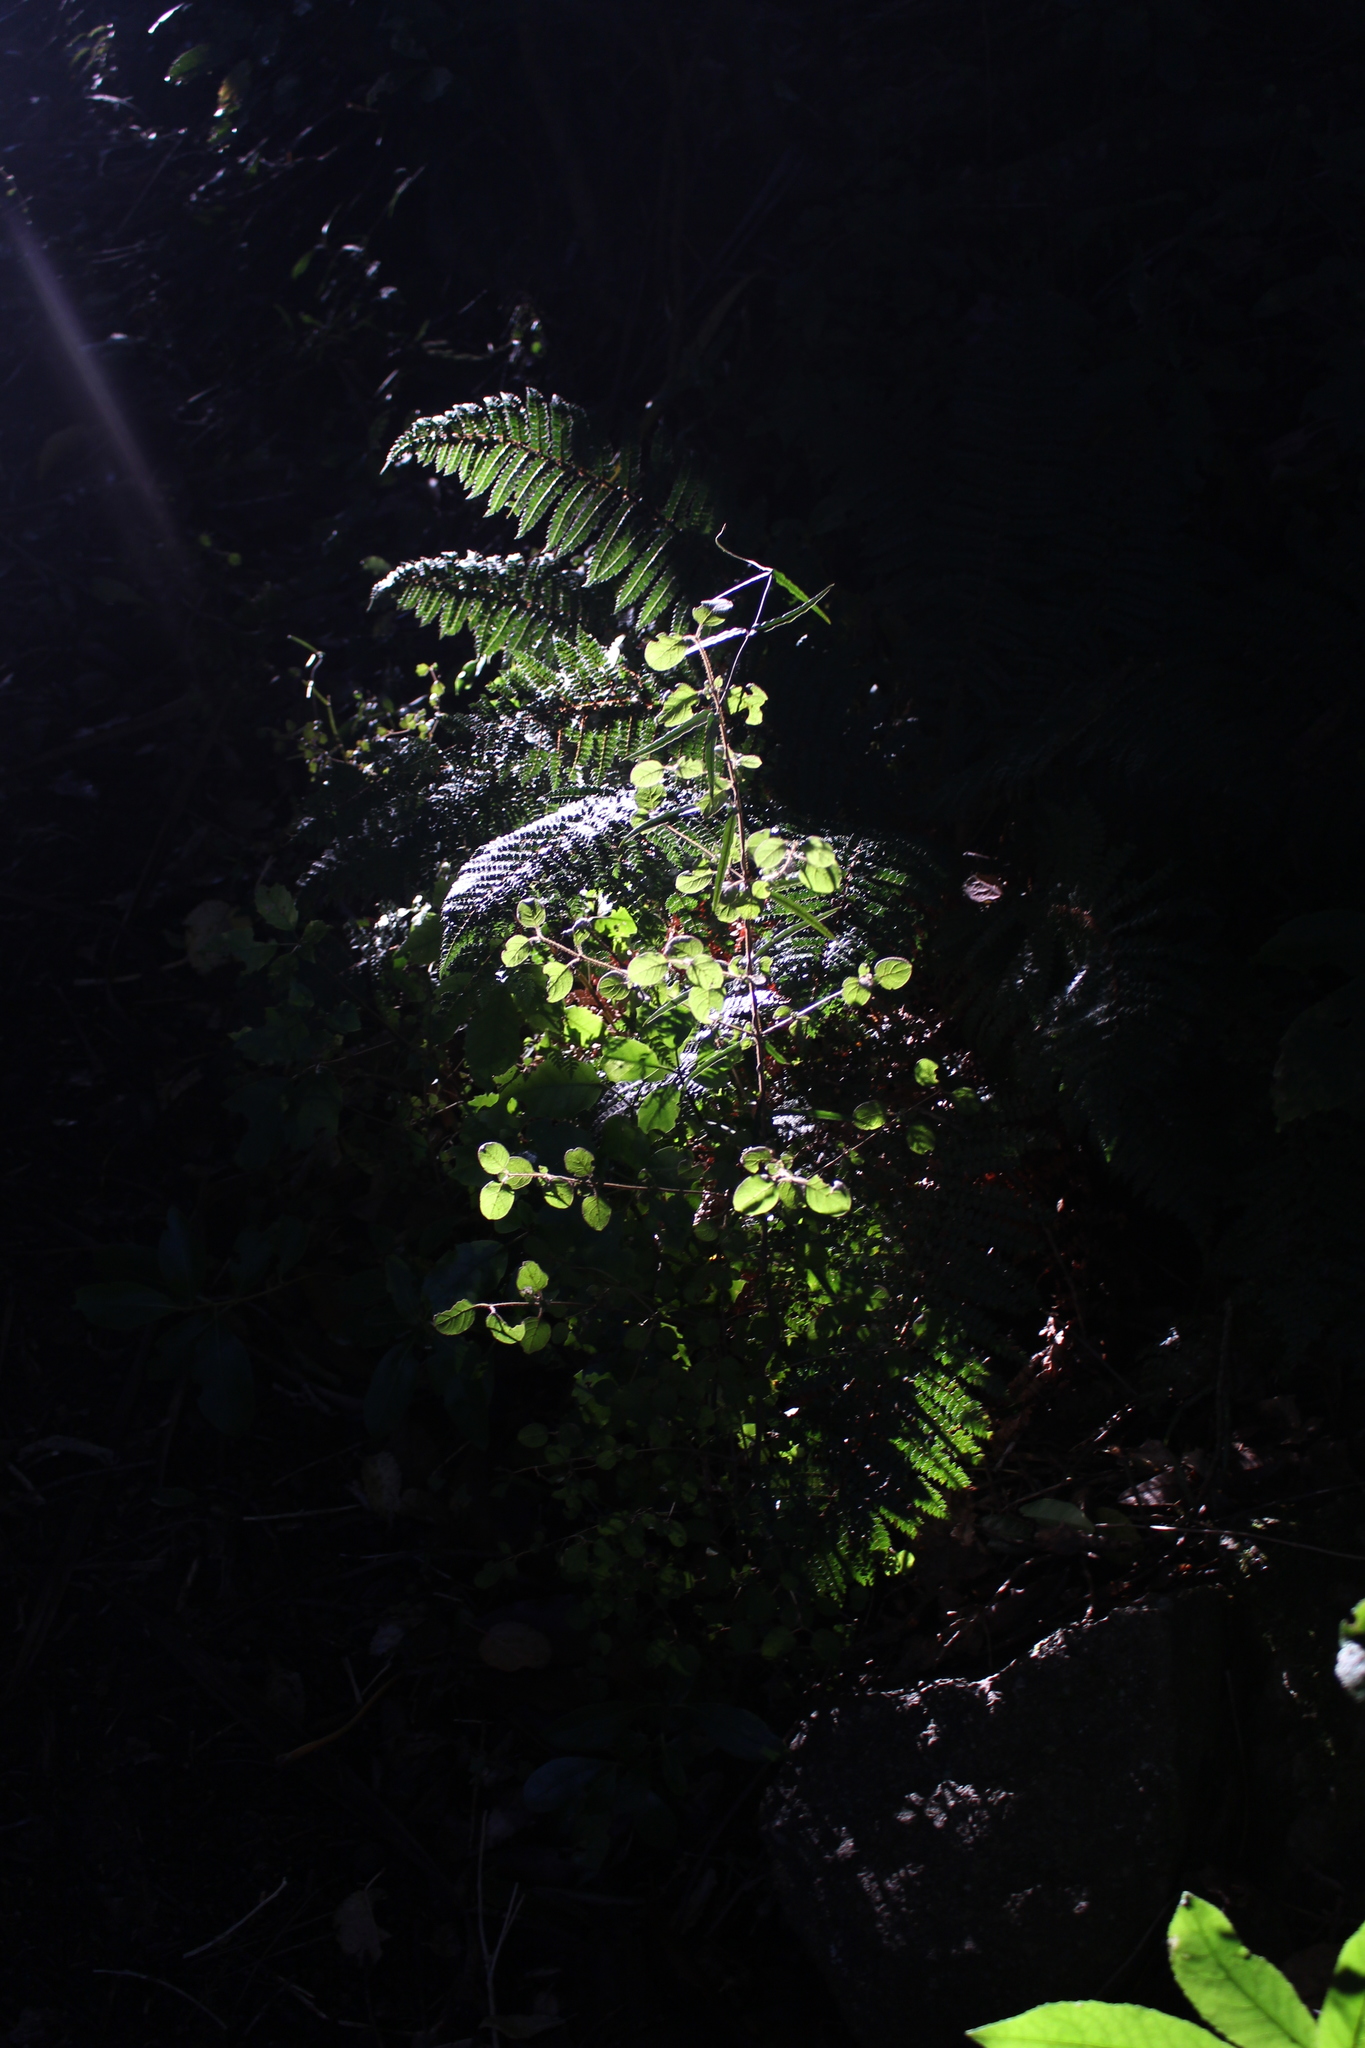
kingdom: Plantae
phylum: Tracheophyta
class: Magnoliopsida
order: Gentianales
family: Rubiaceae
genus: Coprosma
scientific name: Coprosma rotundifolia
